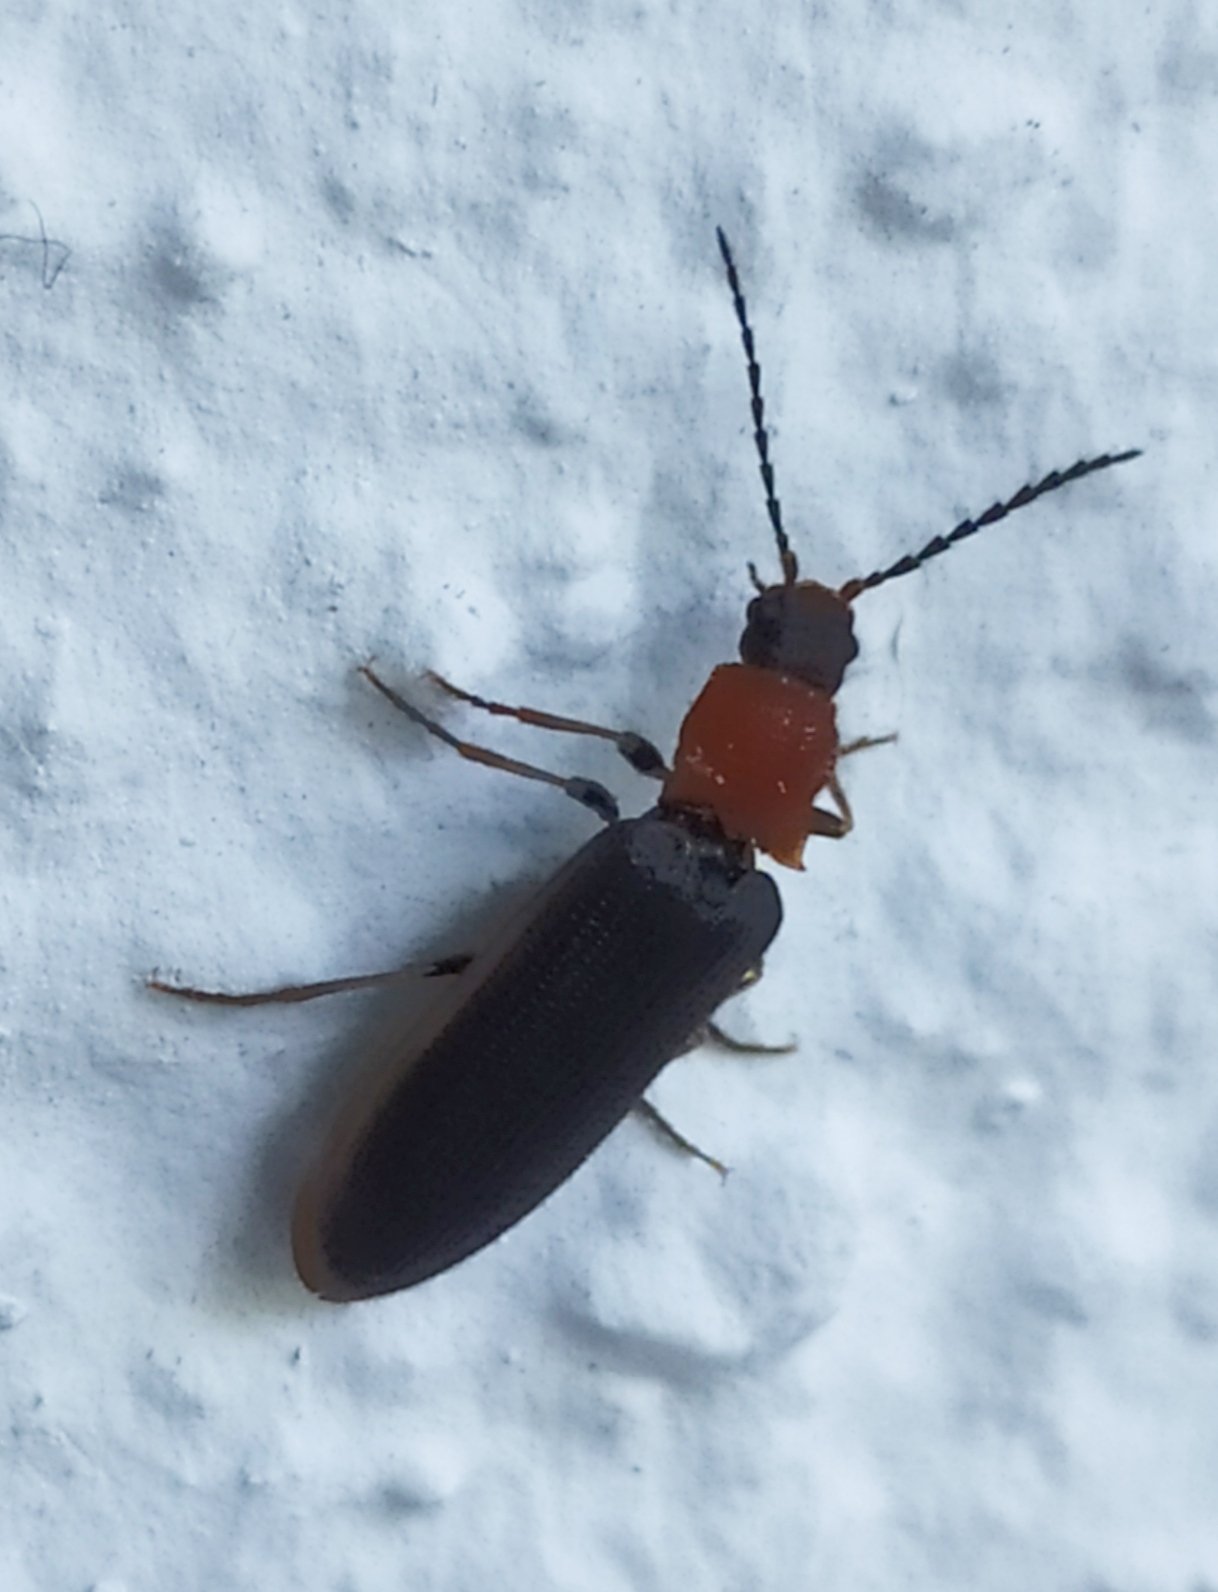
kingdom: Animalia
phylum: Arthropoda
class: Insecta
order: Coleoptera
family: Elateridae
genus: Denticollis
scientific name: Denticollis linearis
